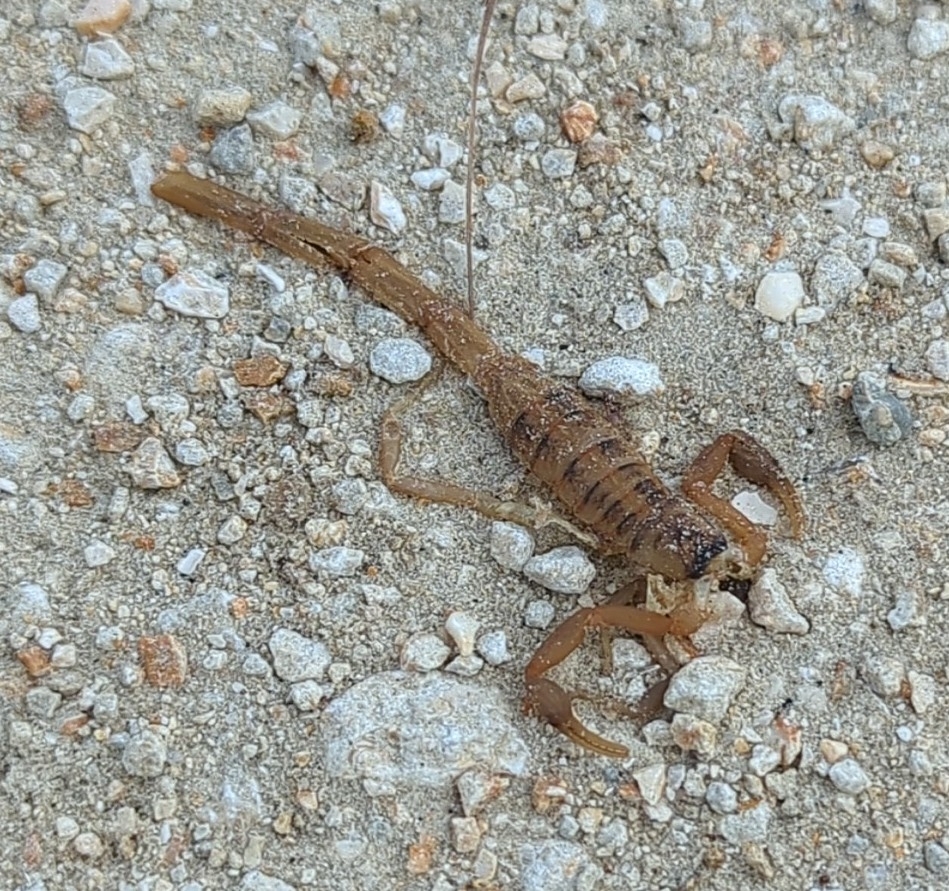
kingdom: Animalia
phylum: Arthropoda
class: Arachnida
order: Scorpiones
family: Buthidae
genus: Centruroides
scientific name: Centruroides vittatus
